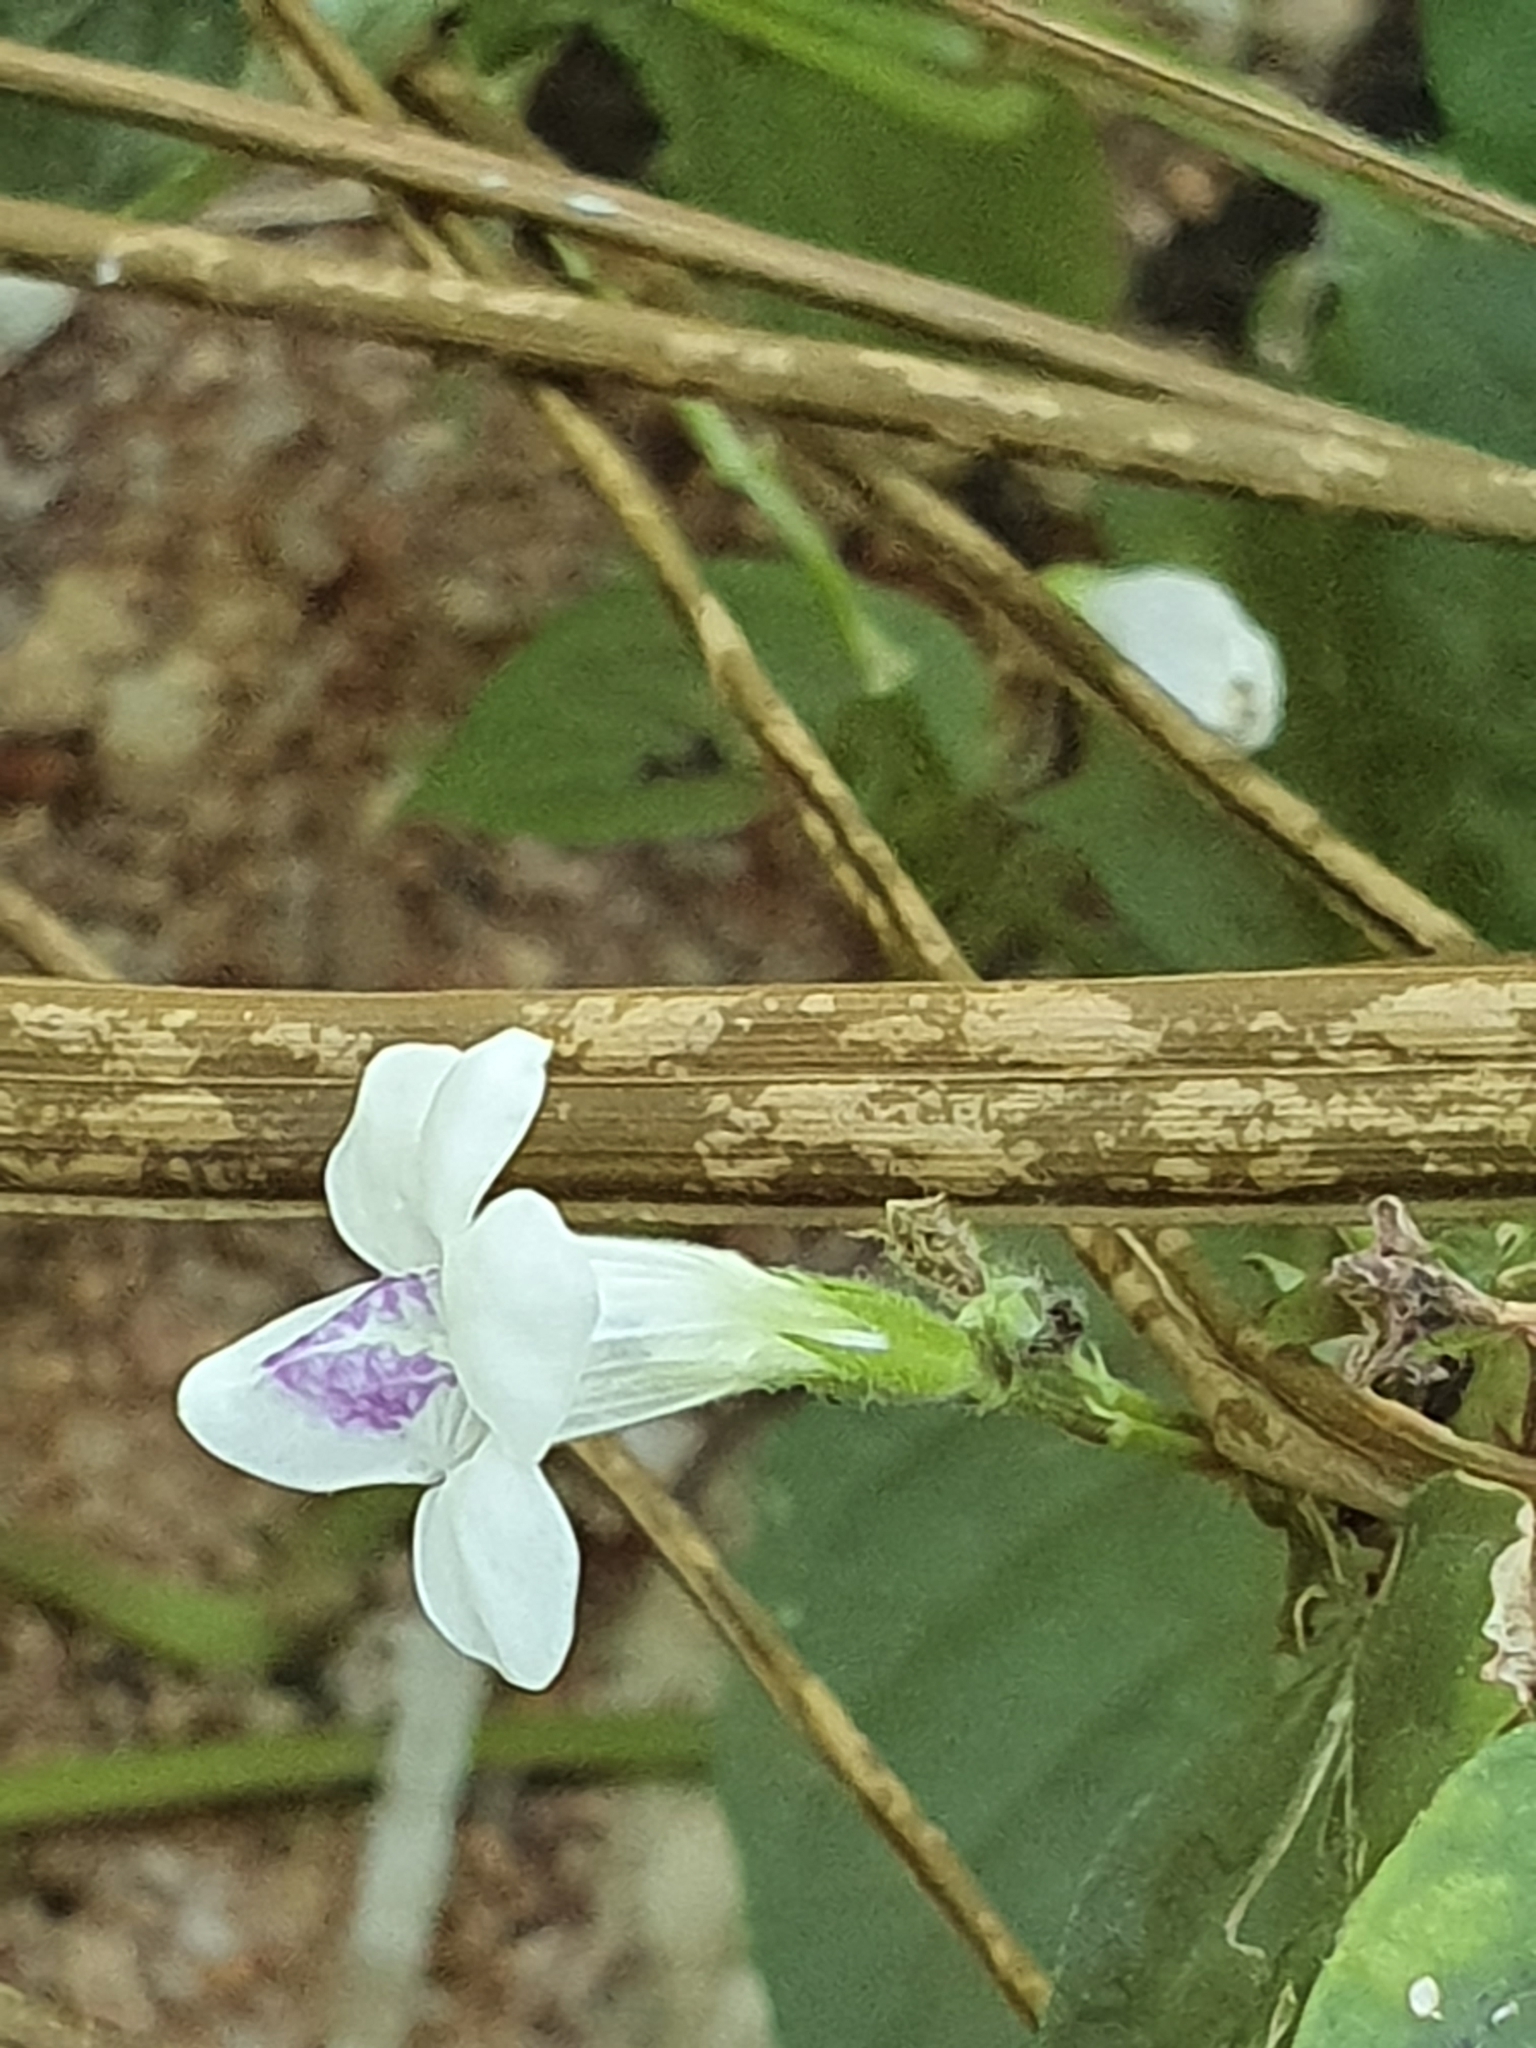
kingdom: Plantae
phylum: Tracheophyta
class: Magnoliopsida
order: Lamiales
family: Acanthaceae
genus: Asystasia
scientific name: Asystasia intrusa
